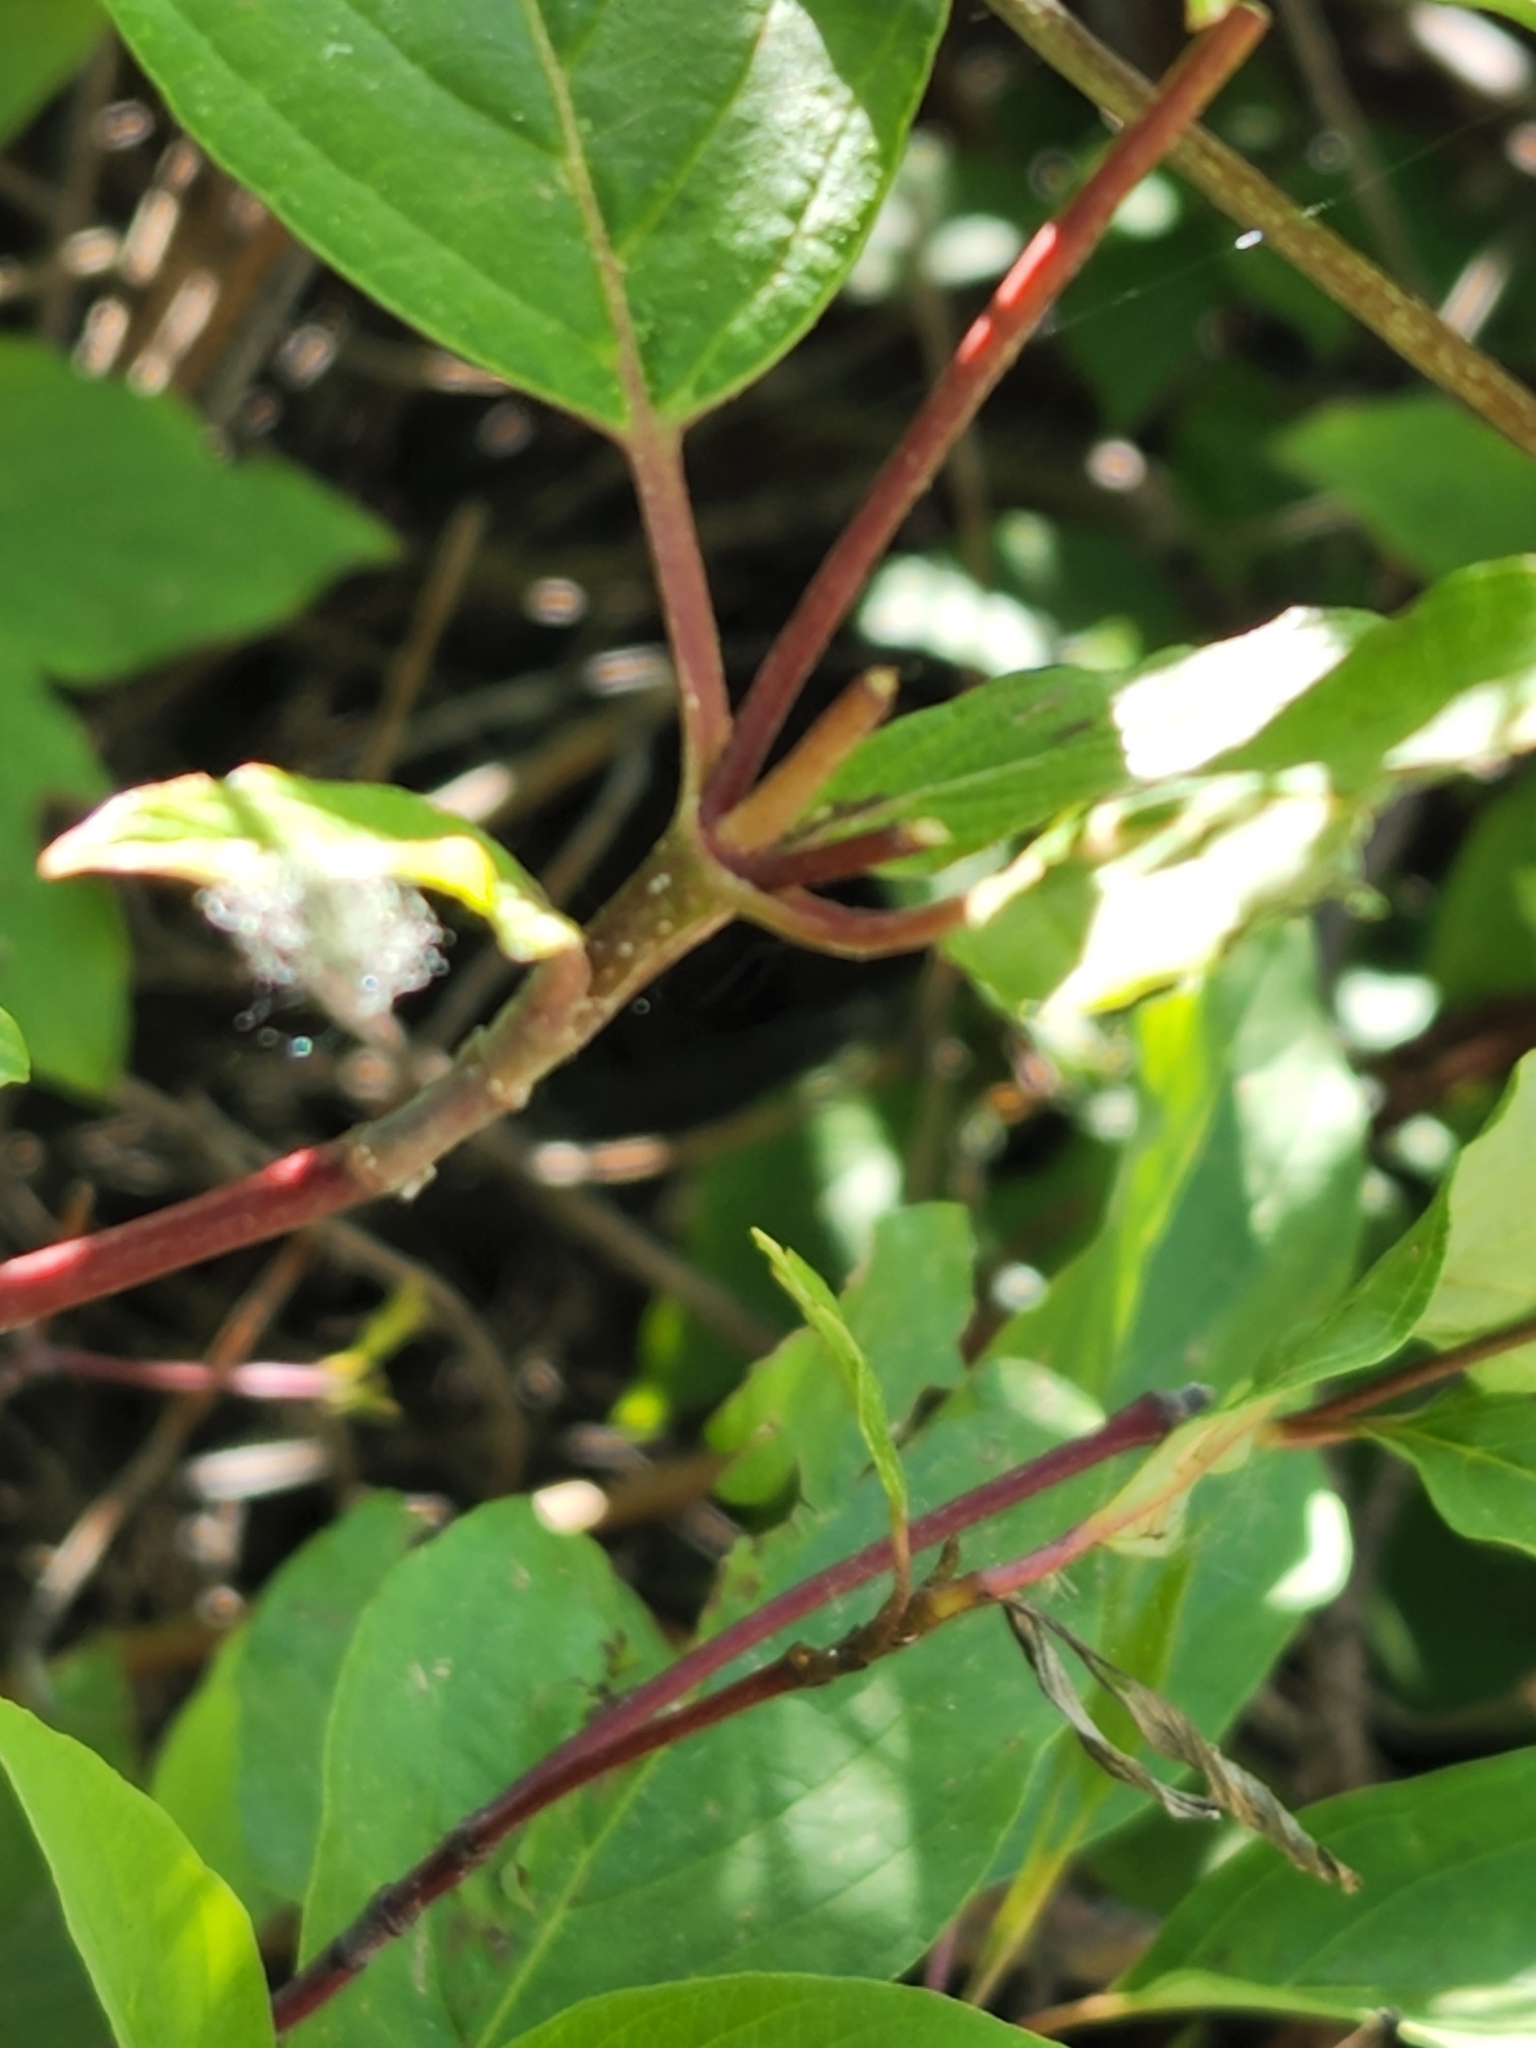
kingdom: Plantae
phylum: Tracheophyta
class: Magnoliopsida
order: Cornales
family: Cornaceae
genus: Cornus
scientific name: Cornus sericea
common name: Red-osier dogwood
